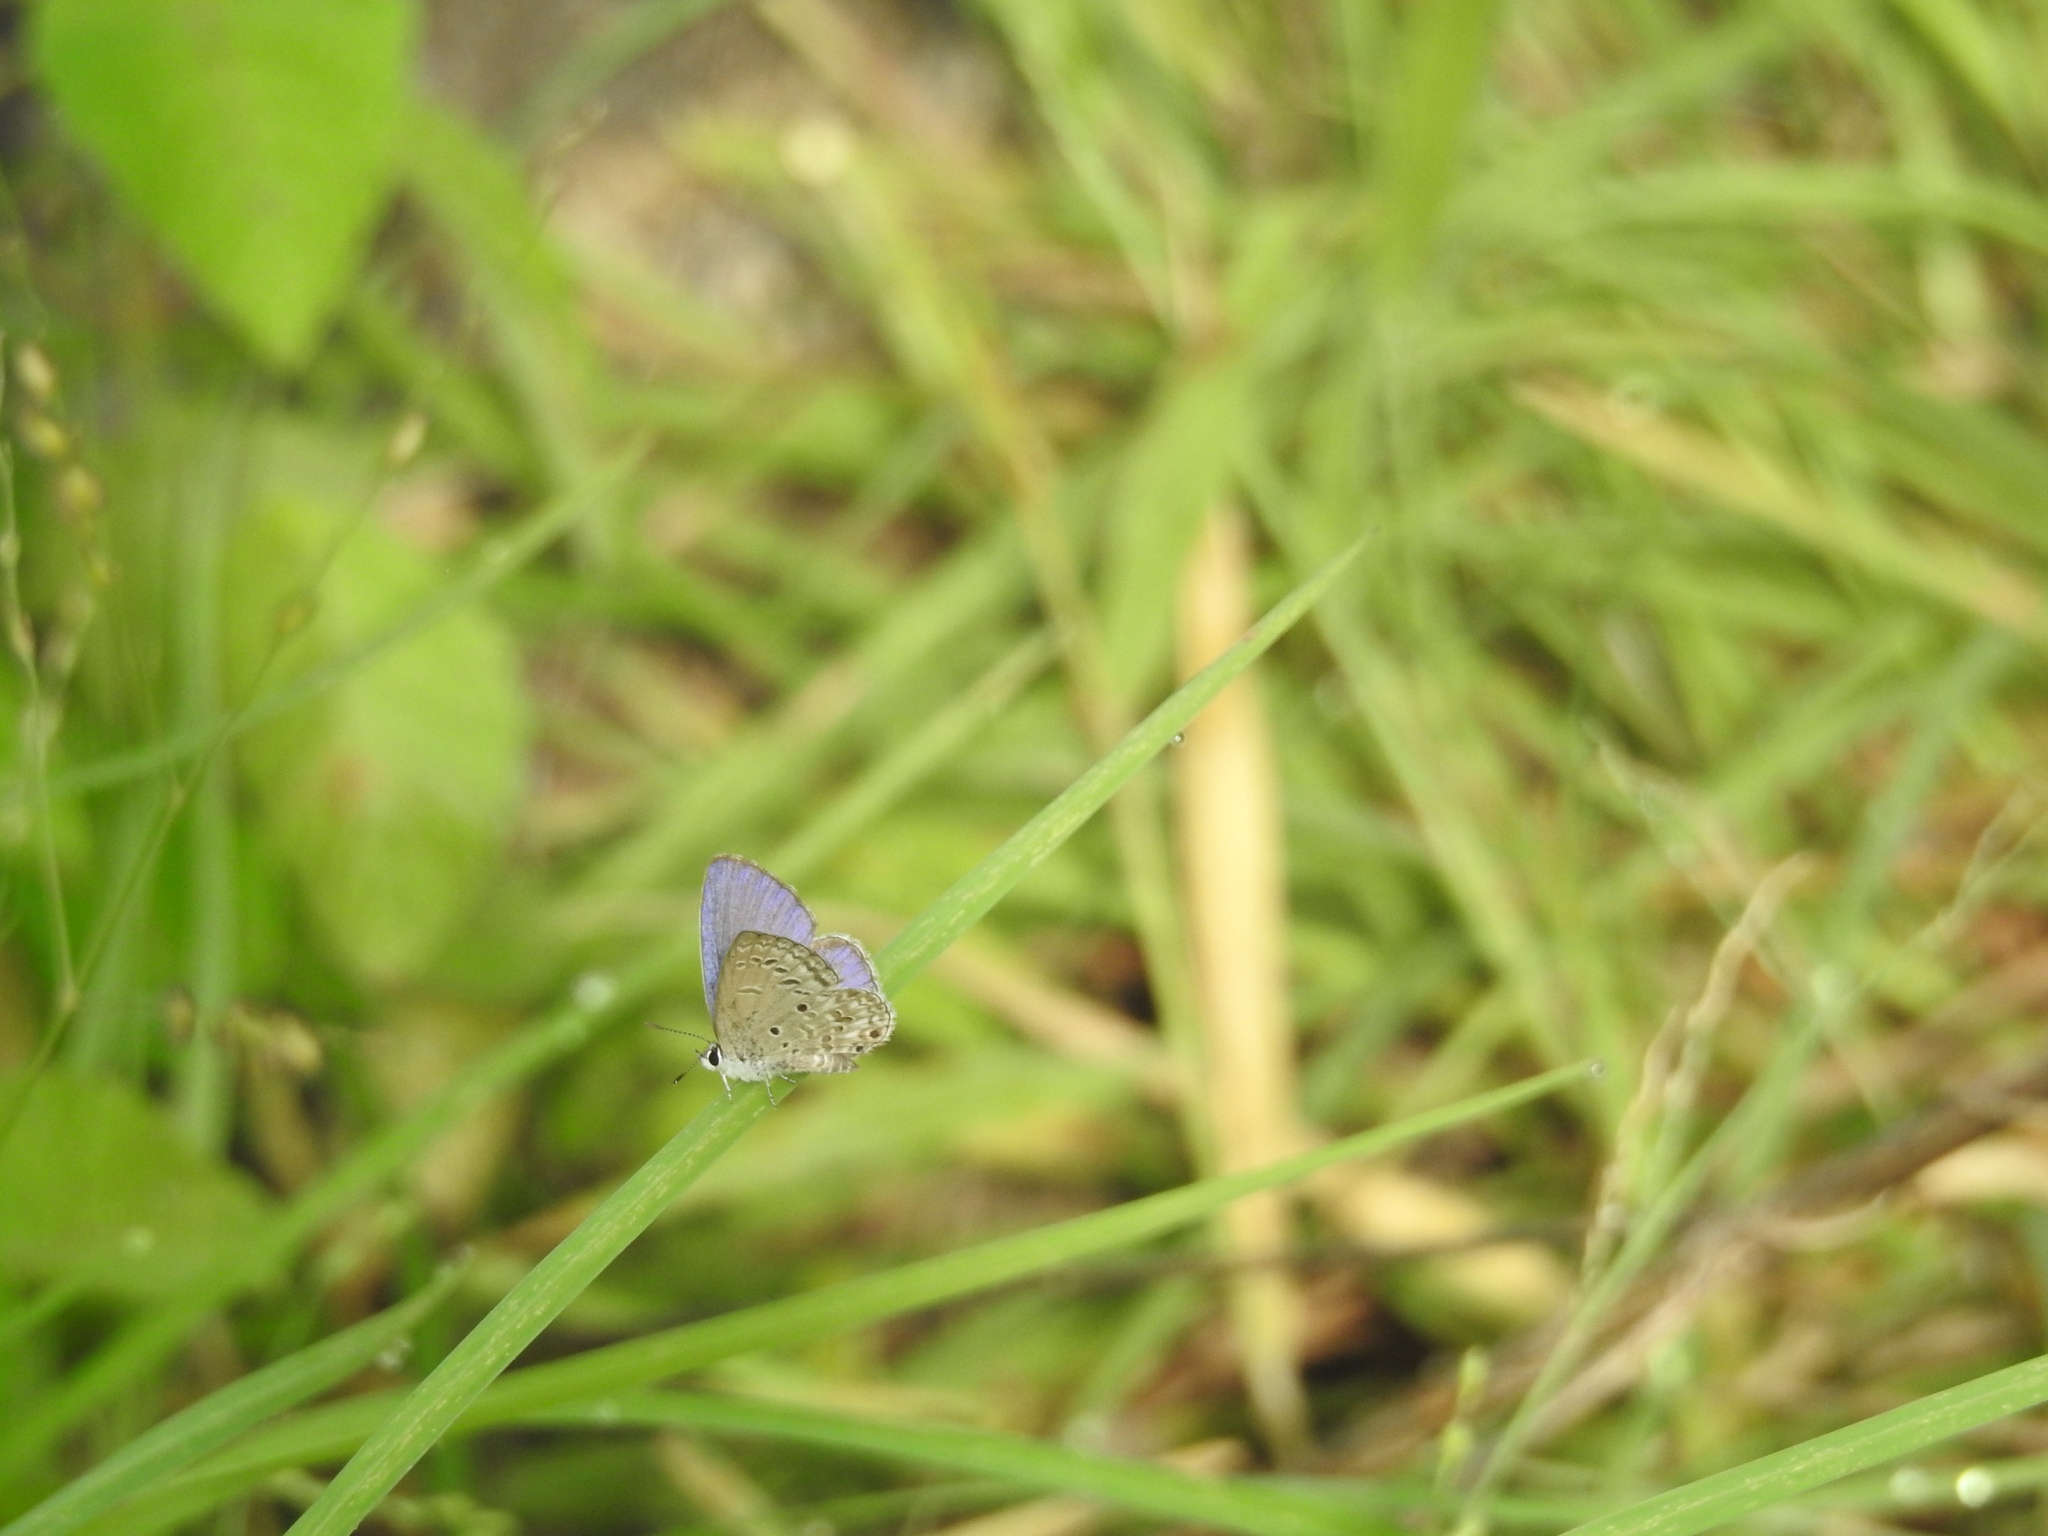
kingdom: Animalia
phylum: Arthropoda
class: Insecta
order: Lepidoptera
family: Lycaenidae
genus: Chilades
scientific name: Chilades laius
